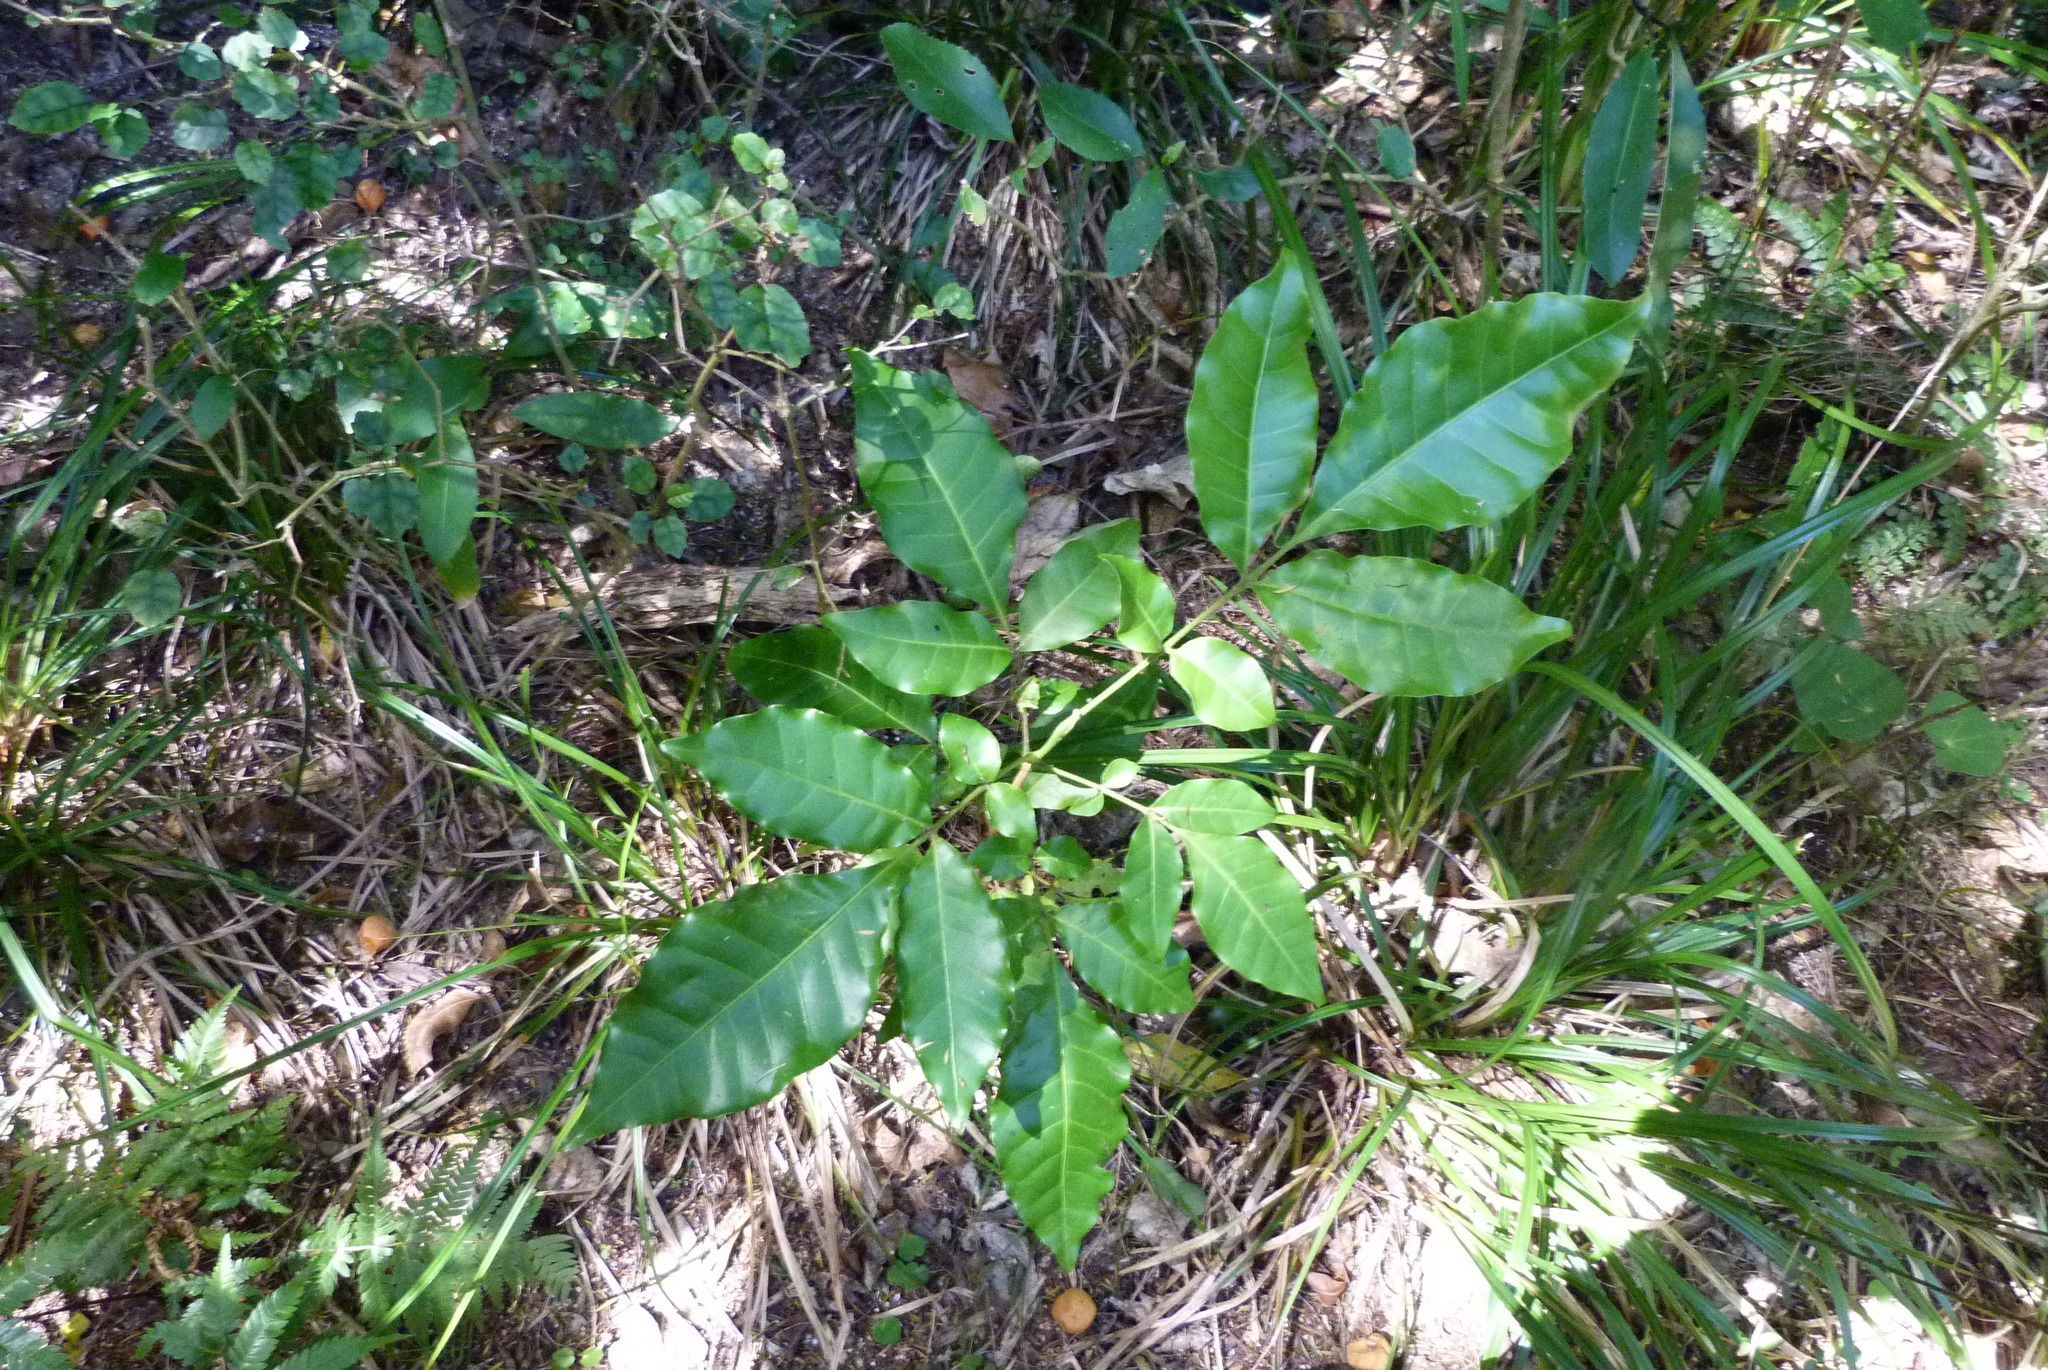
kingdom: Plantae
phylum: Tracheophyta
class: Magnoliopsida
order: Sapindales
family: Meliaceae
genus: Didymocheton
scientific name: Didymocheton spectabilis
